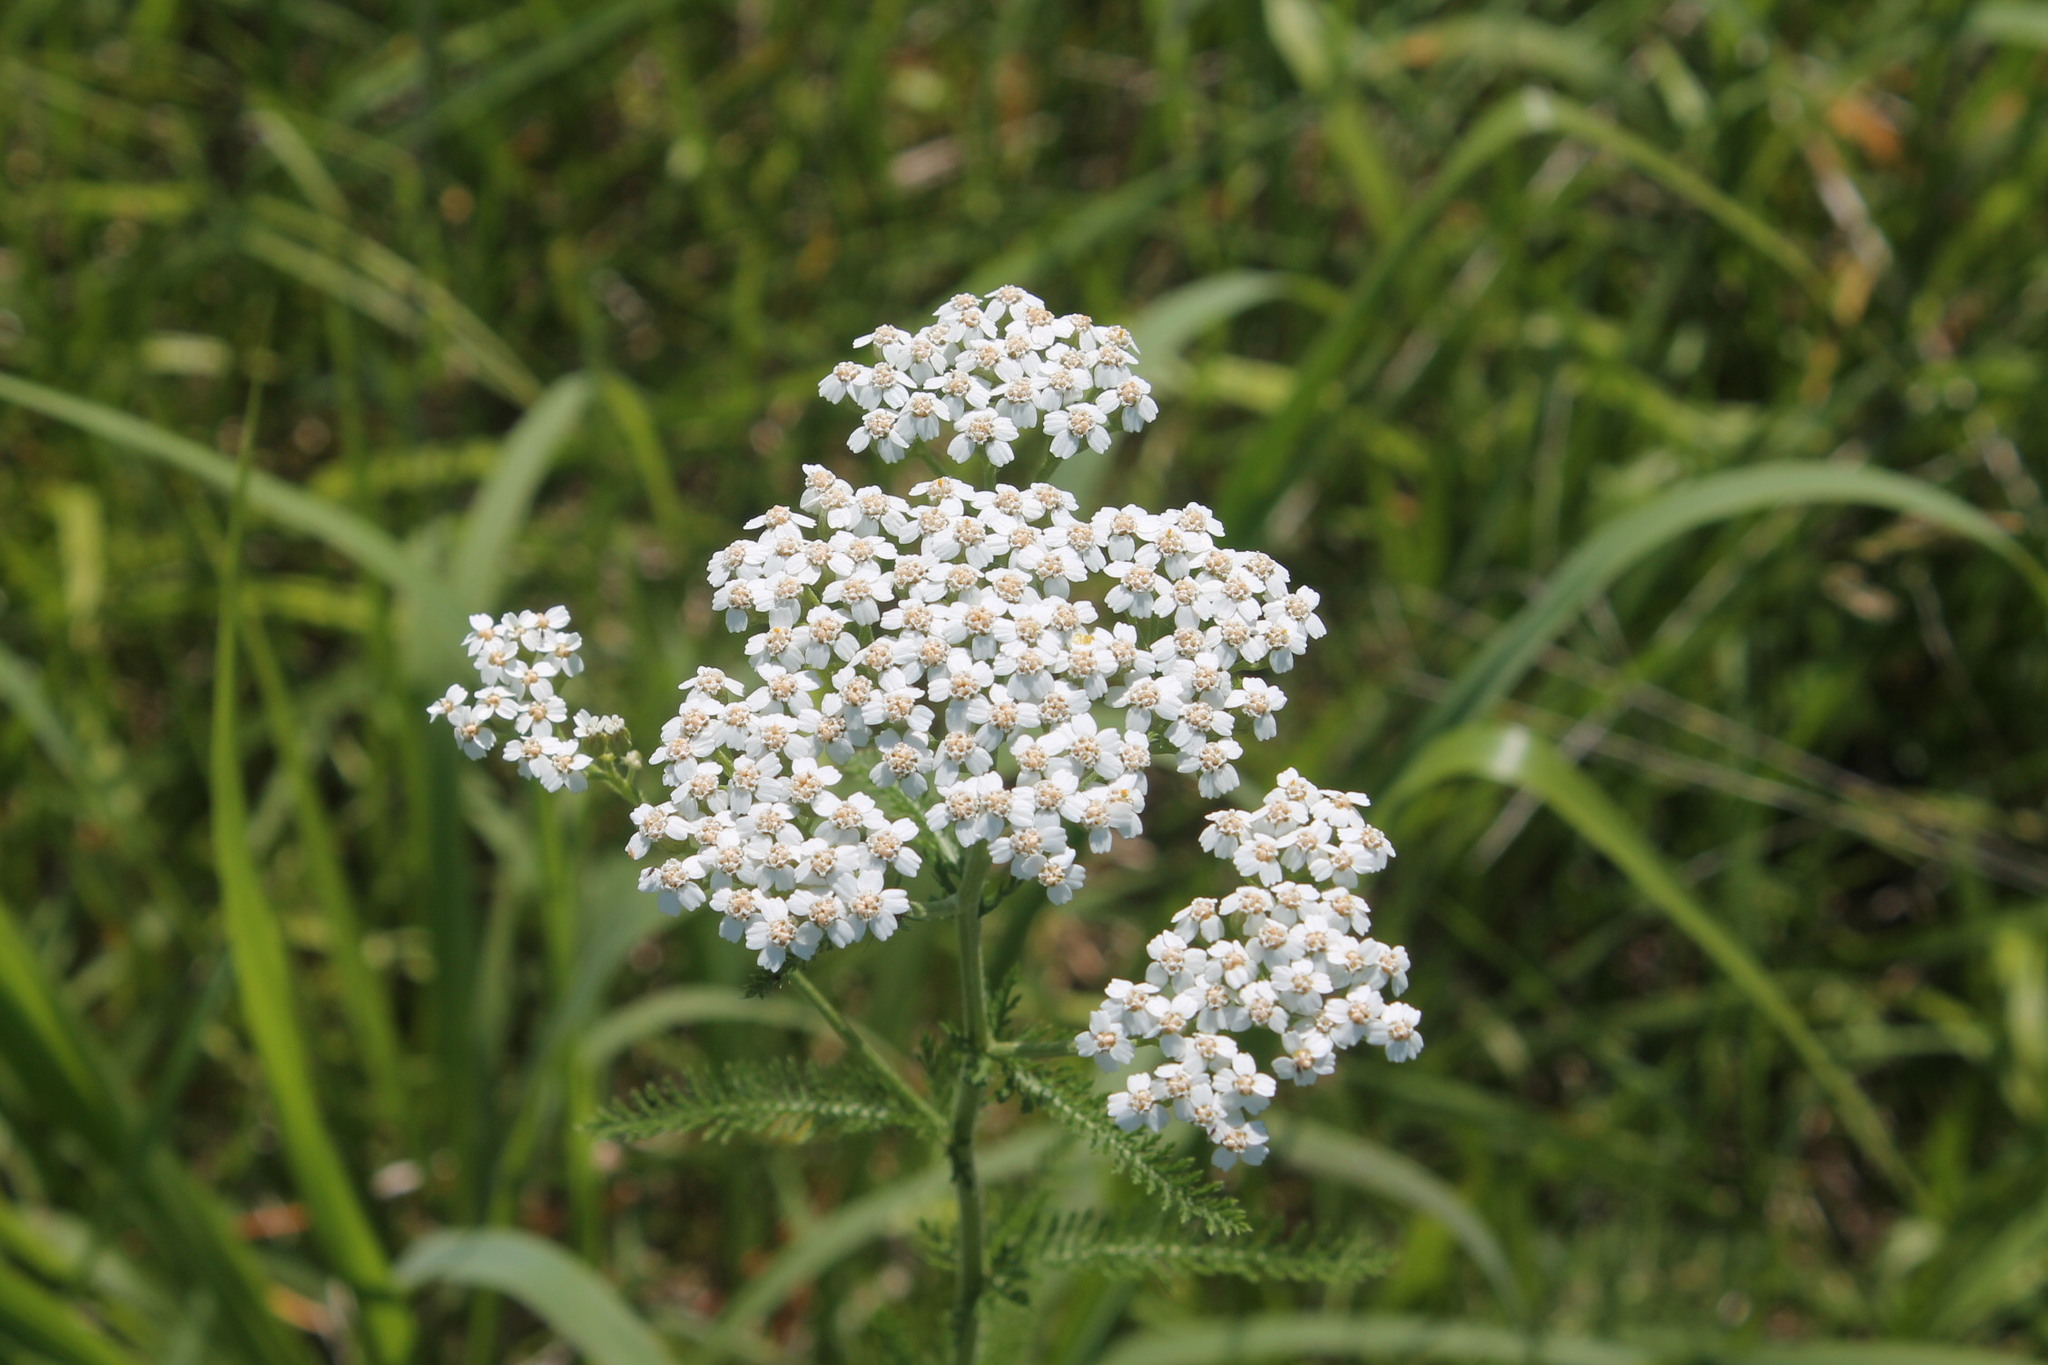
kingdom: Plantae
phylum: Tracheophyta
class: Magnoliopsida
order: Asterales
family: Asteraceae
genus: Achillea
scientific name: Achillea millefolium
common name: Yarrow
